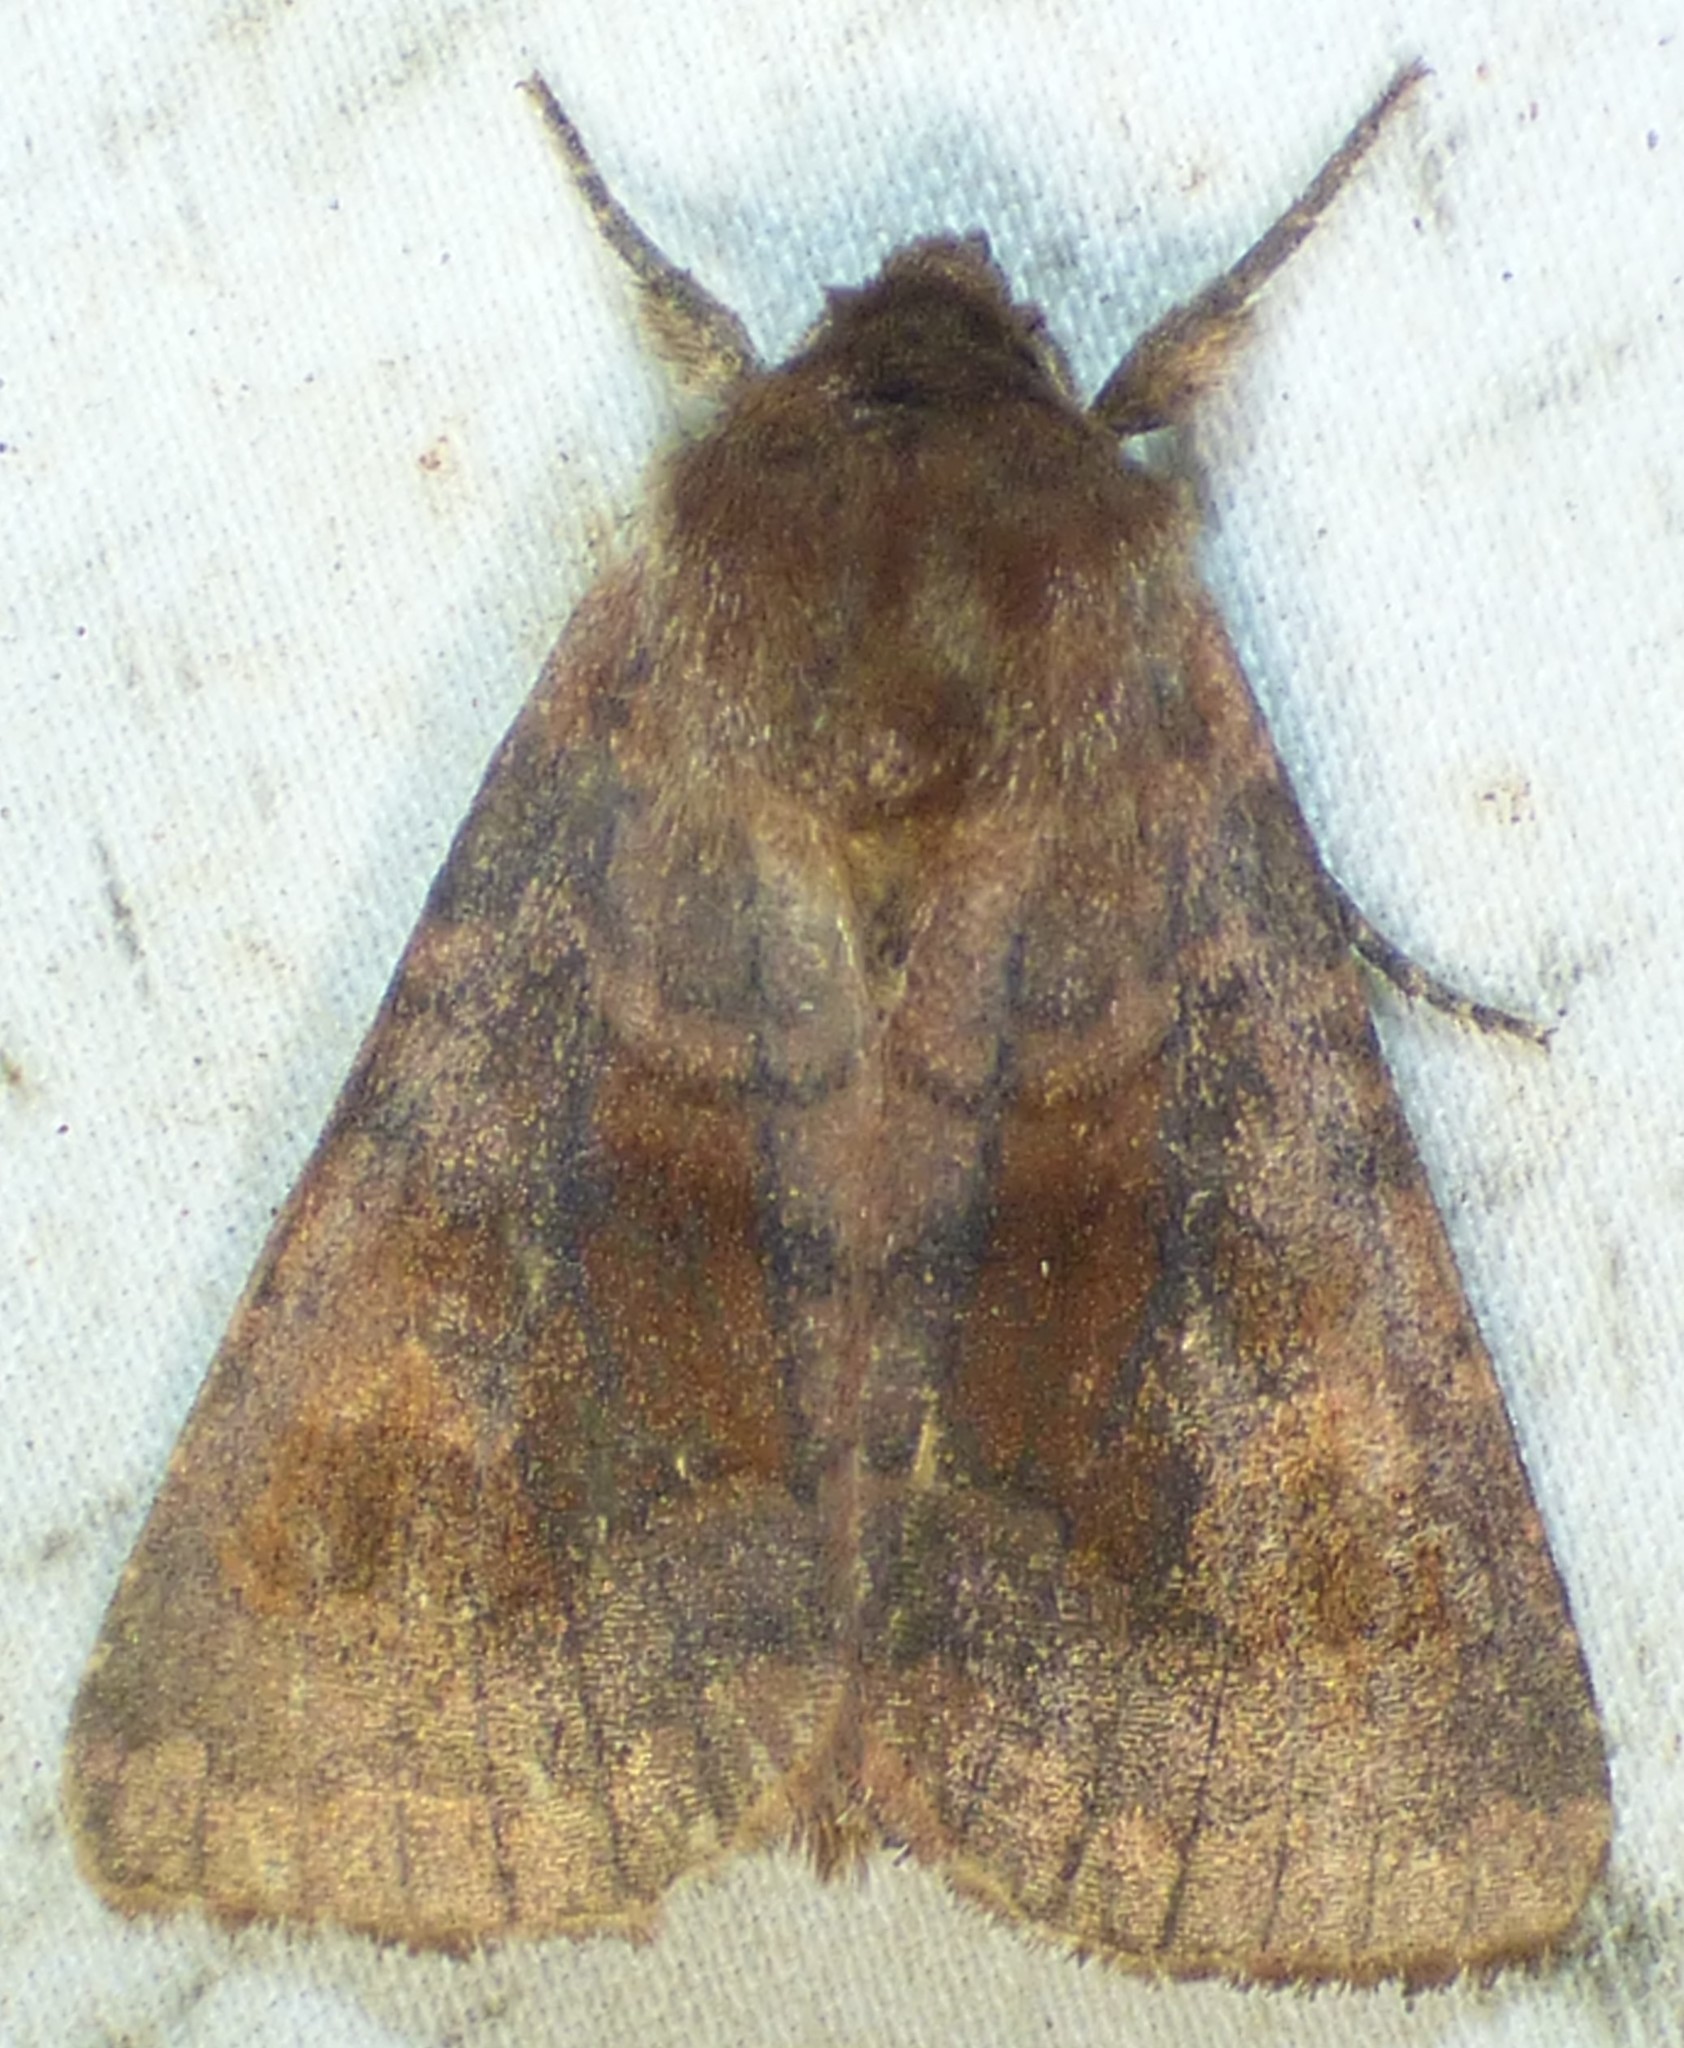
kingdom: Animalia
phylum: Arthropoda
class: Insecta
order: Lepidoptera
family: Noctuidae
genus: Nephelodes
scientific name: Nephelodes minians
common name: Bronzed cutworm
